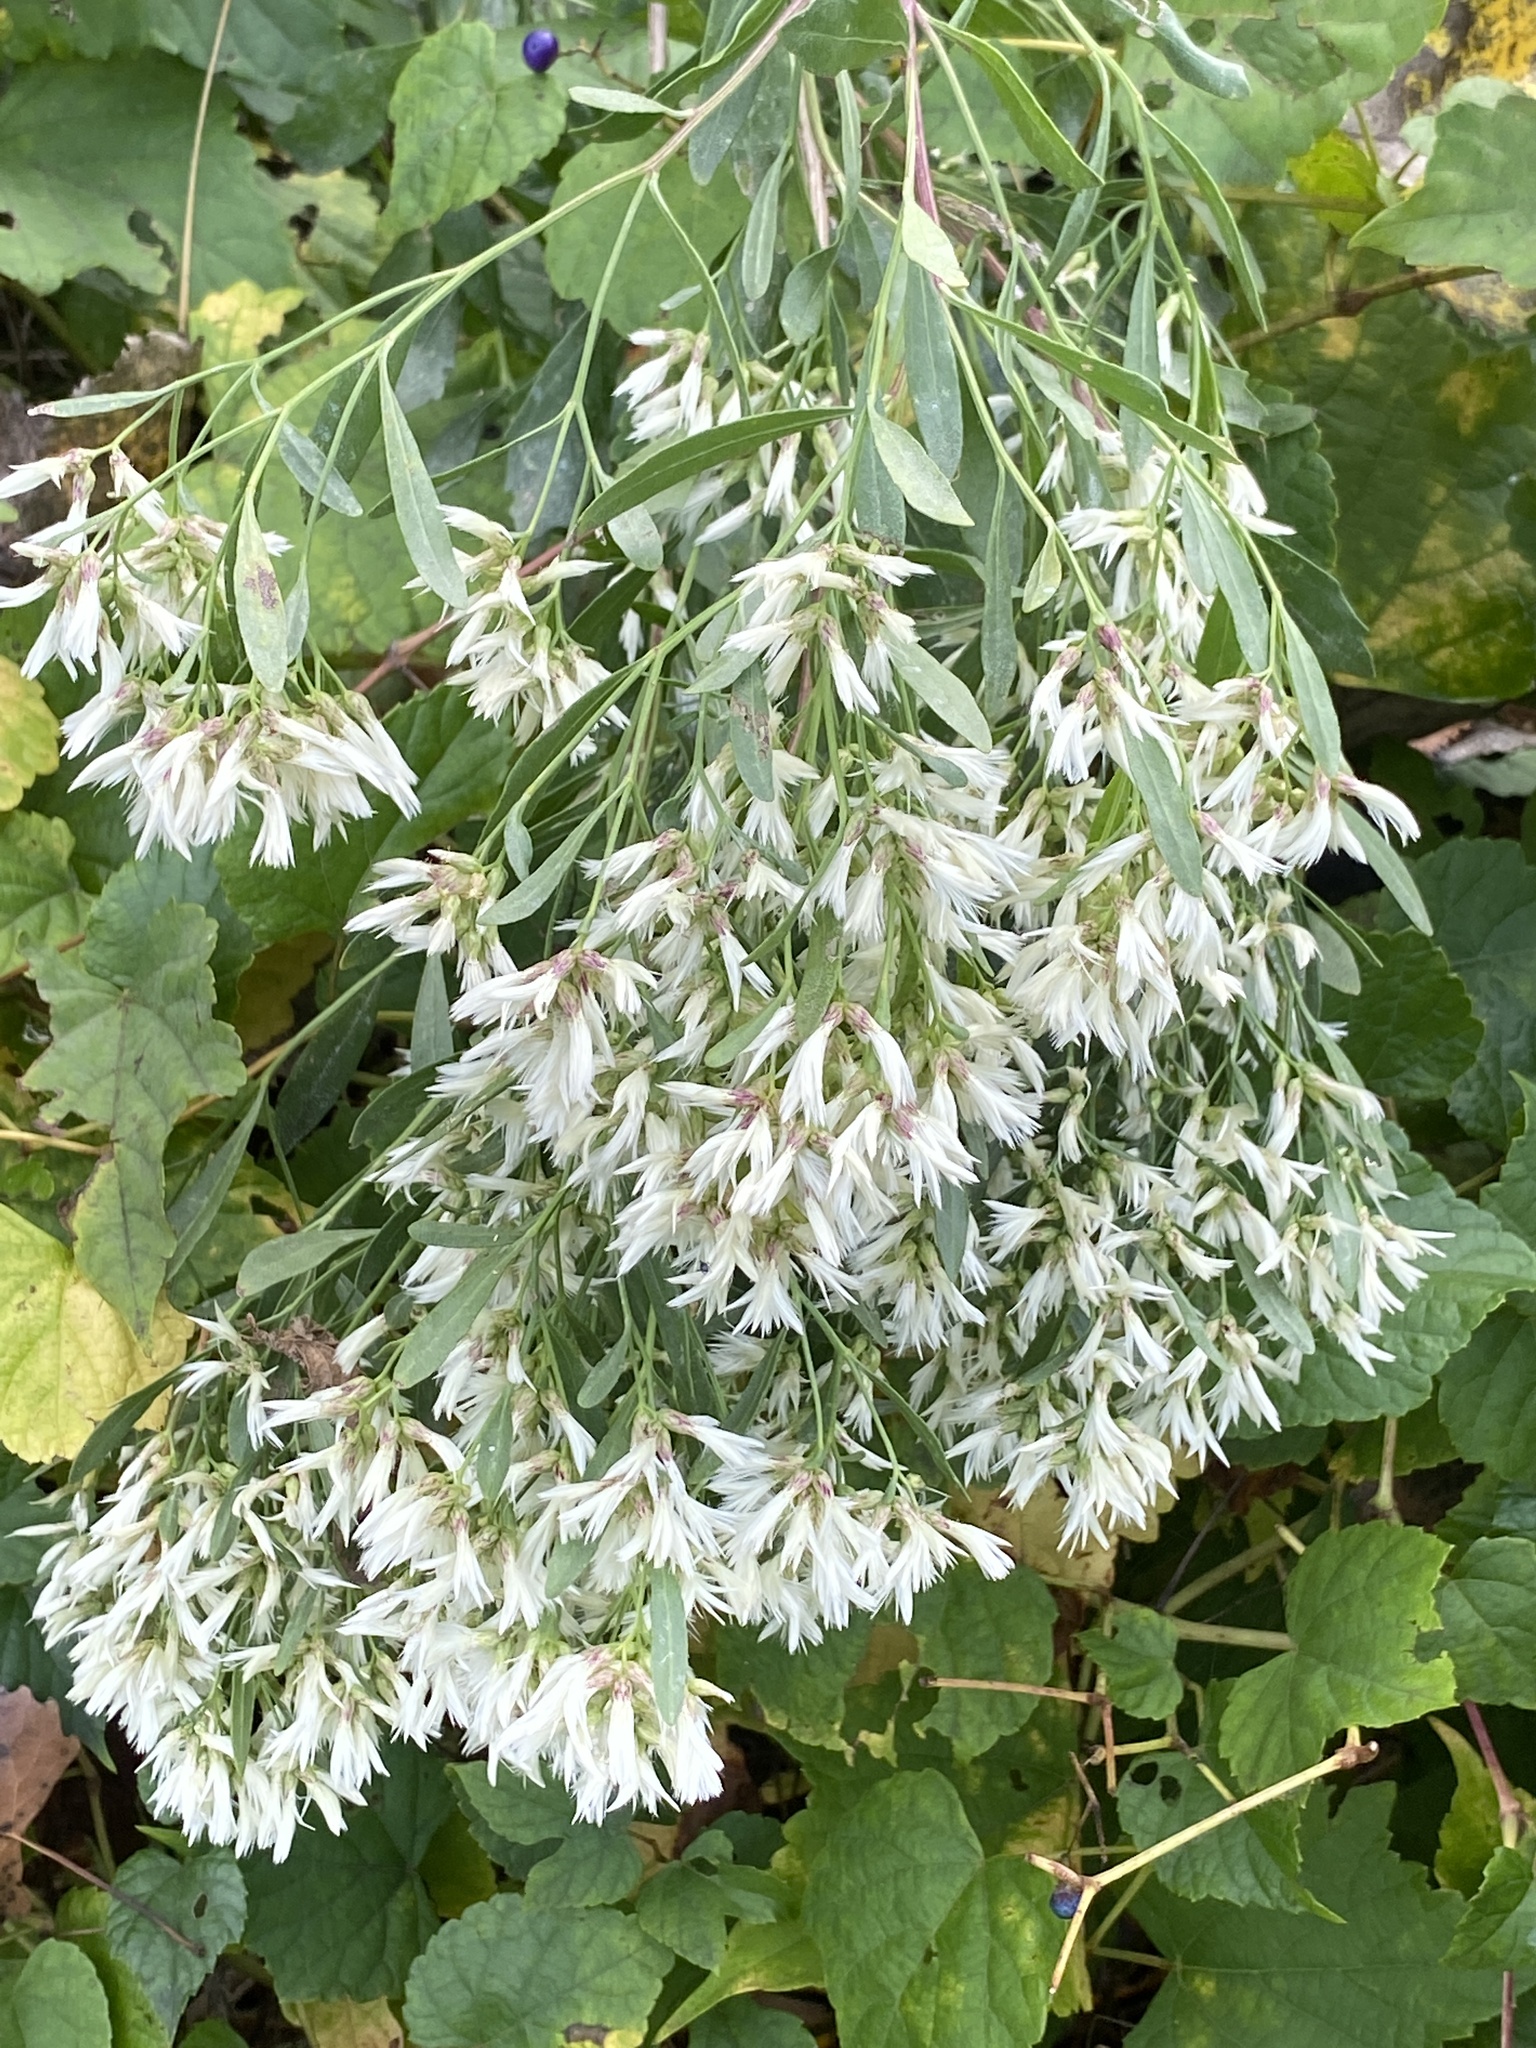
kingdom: Plantae
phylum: Tracheophyta
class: Magnoliopsida
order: Asterales
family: Asteraceae
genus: Baccharis
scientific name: Baccharis halimifolia
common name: Eastern baccharis
